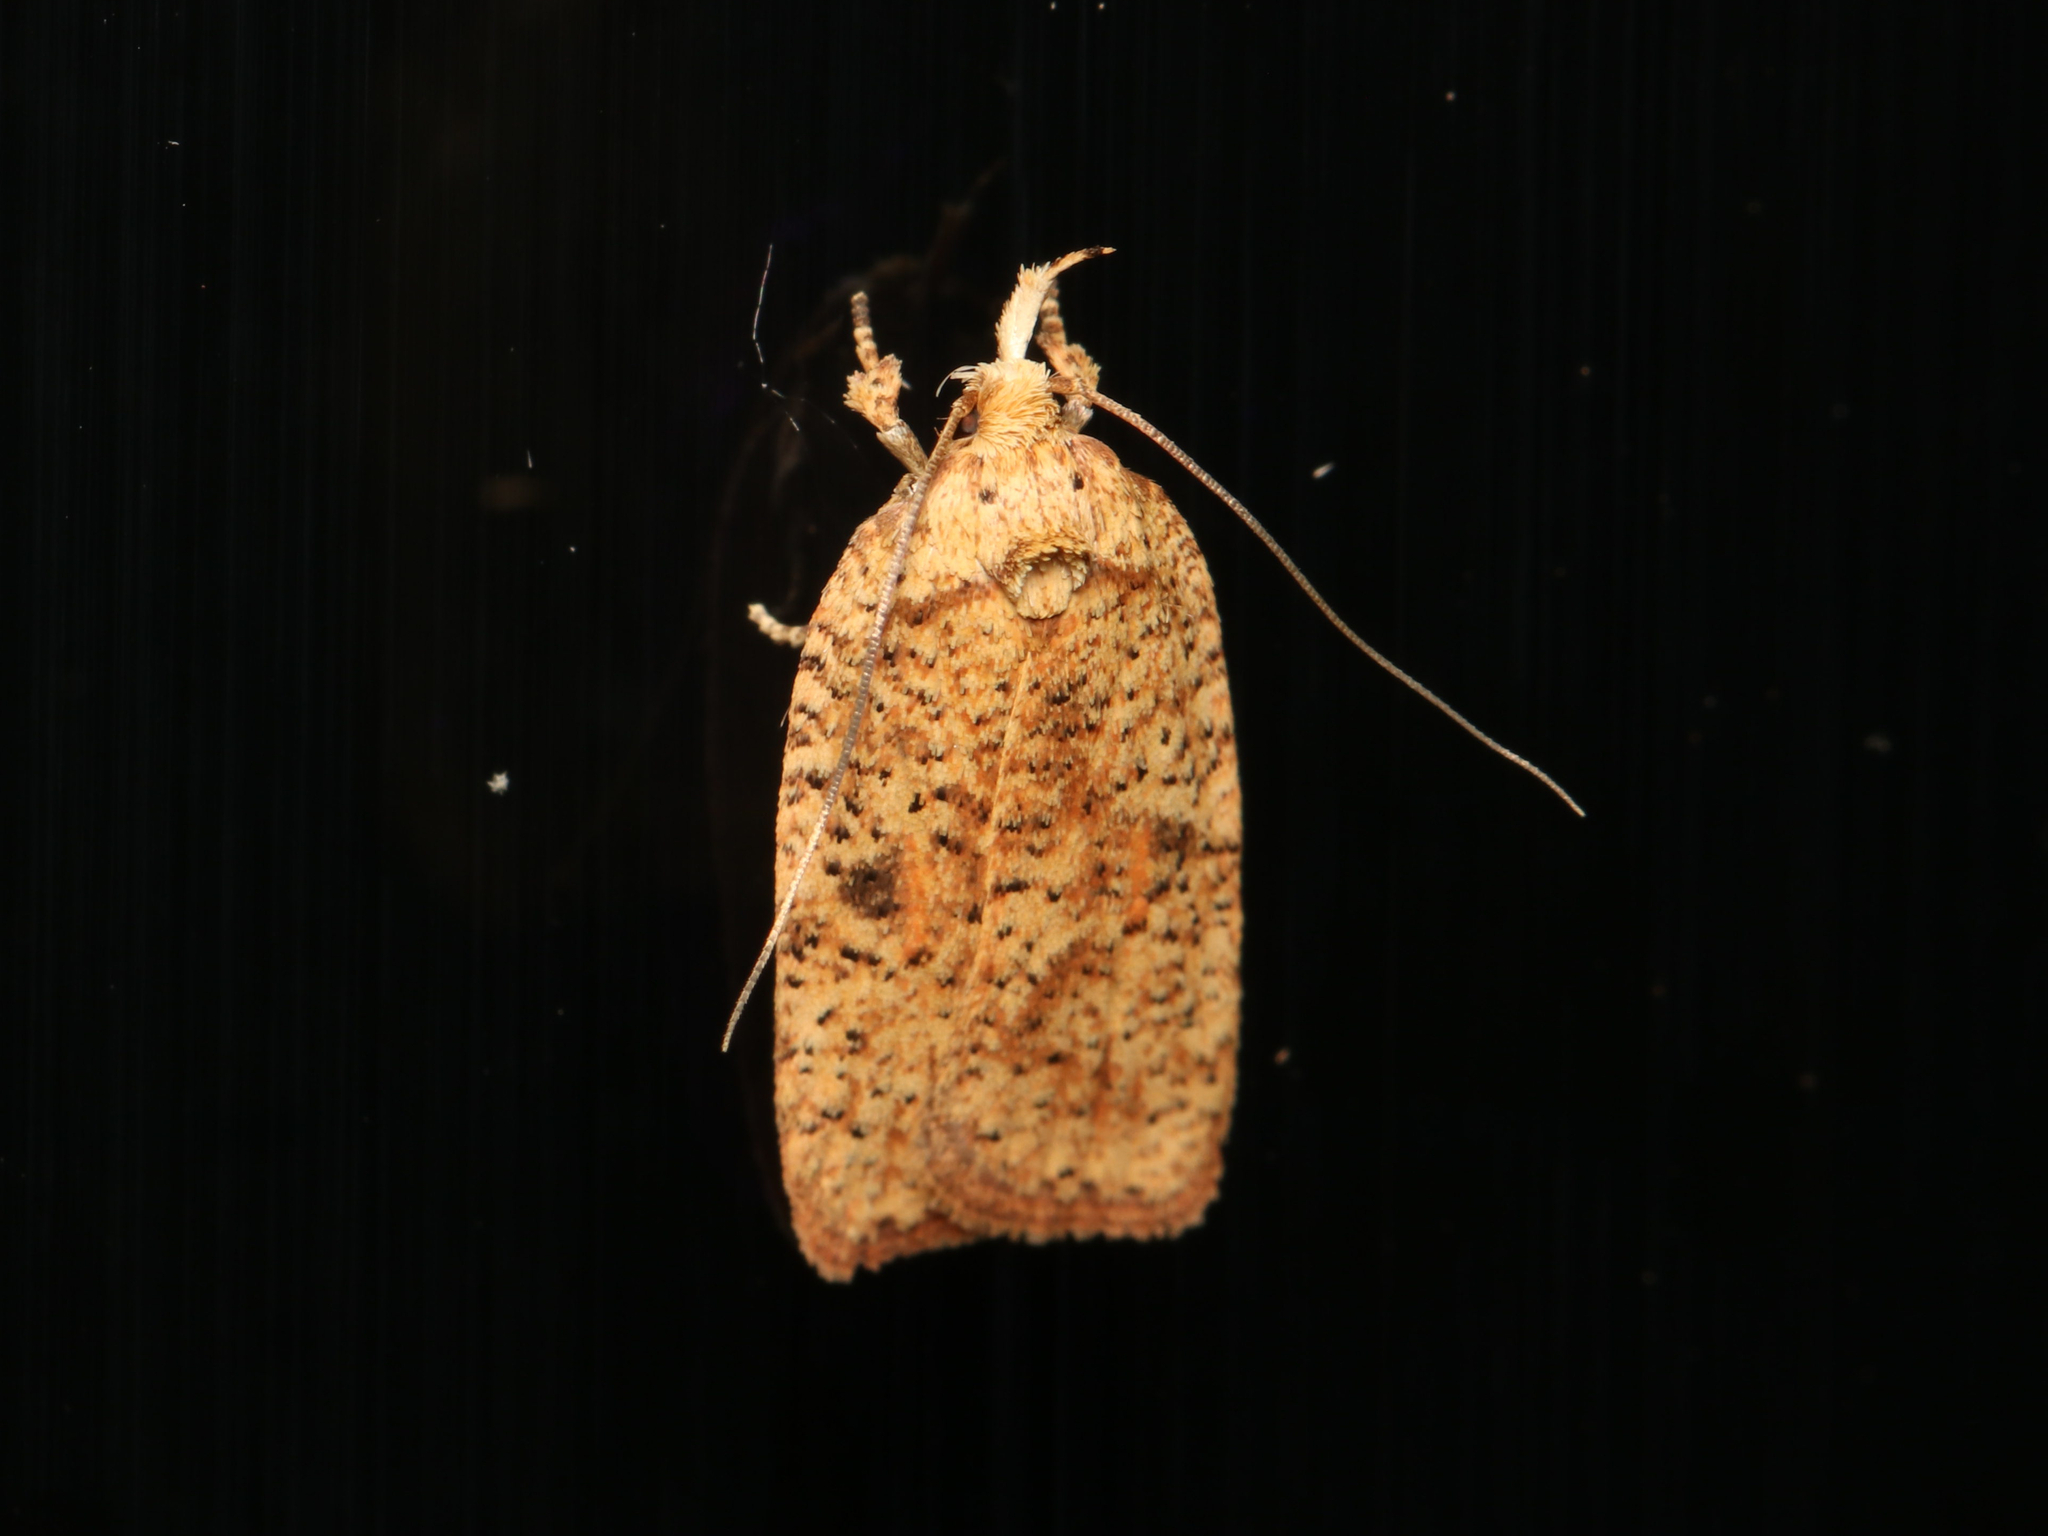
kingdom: Animalia
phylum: Arthropoda
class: Insecta
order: Lepidoptera
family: Depressariidae
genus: Agonopterix
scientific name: Agonopterix thelmae
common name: Thelma's agonopterix moth
